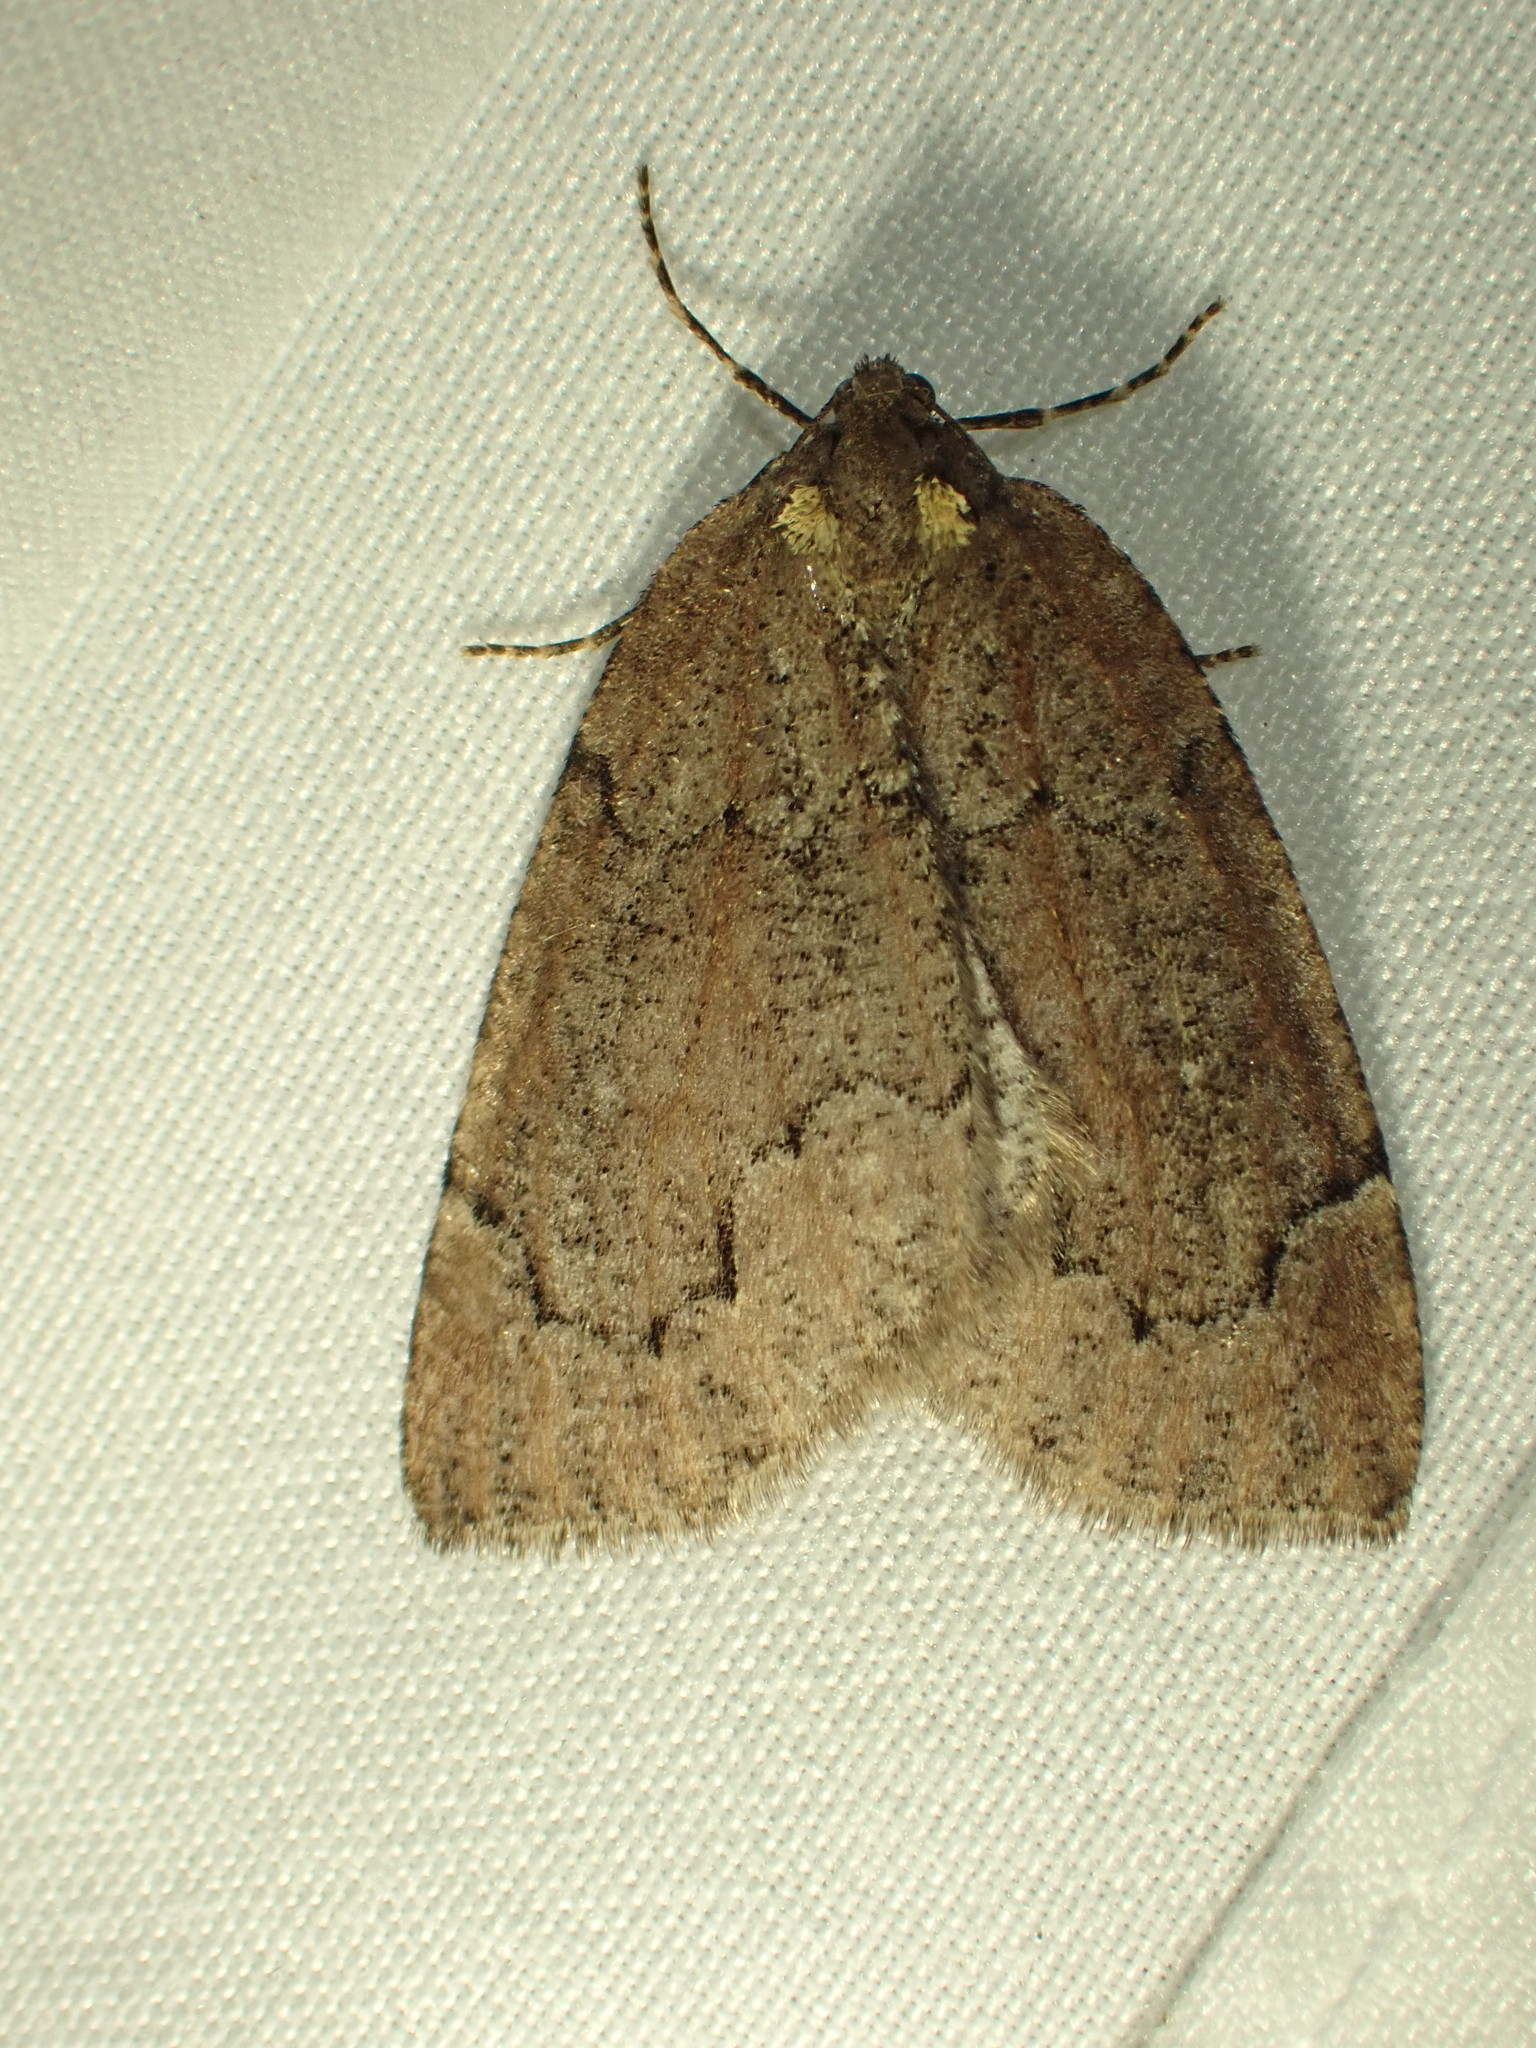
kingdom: Animalia
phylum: Arthropoda
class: Insecta
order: Lepidoptera
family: Geometridae
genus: Spodolepis
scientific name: Spodolepis substriataria
